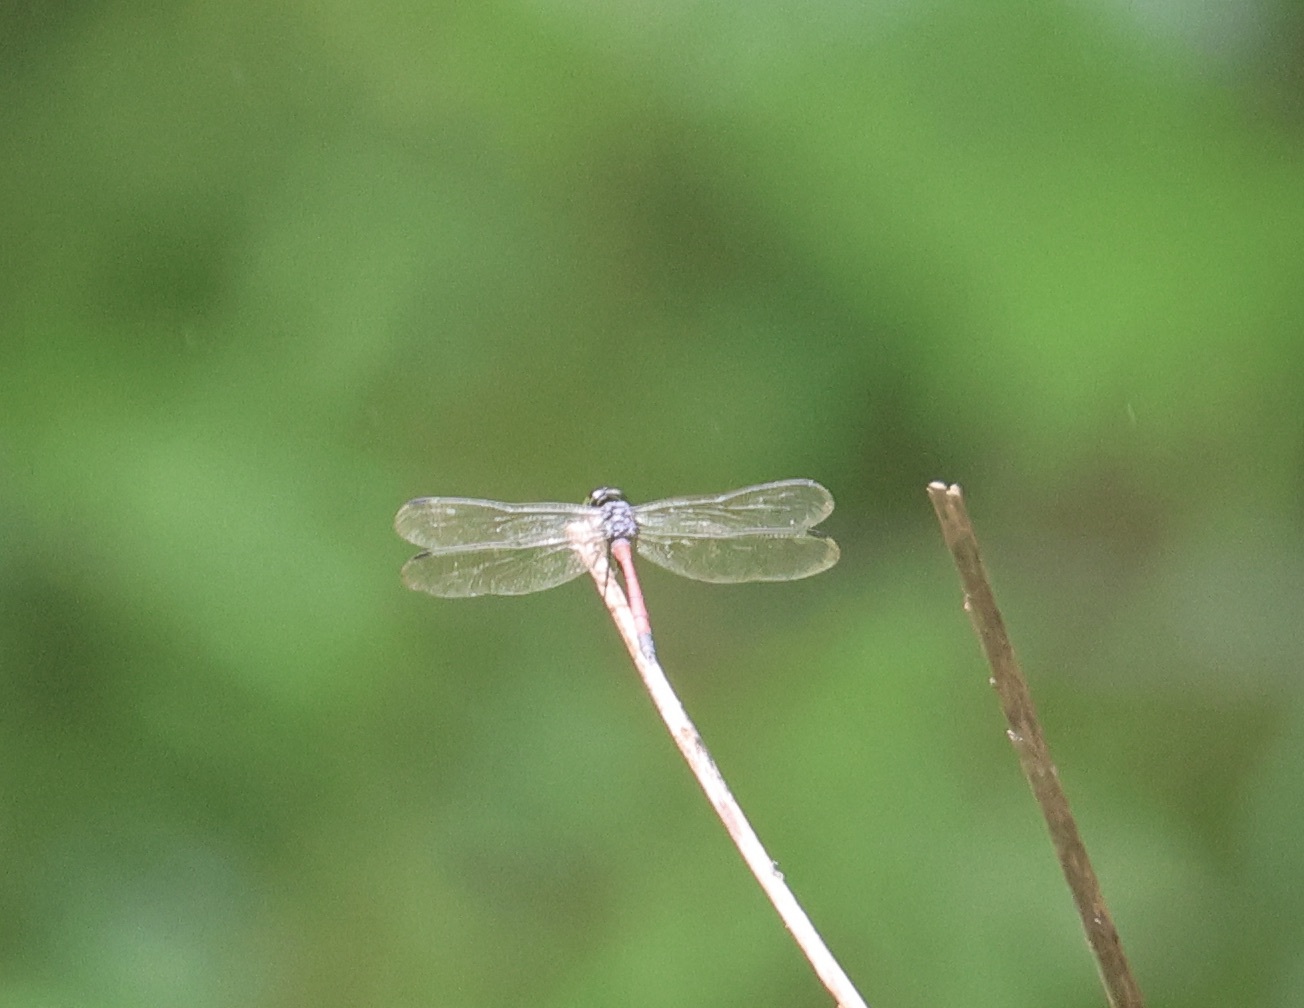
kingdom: Animalia
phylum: Arthropoda
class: Insecta
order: Odonata
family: Libellulidae
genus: Agrionoptera
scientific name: Agrionoptera insignis
